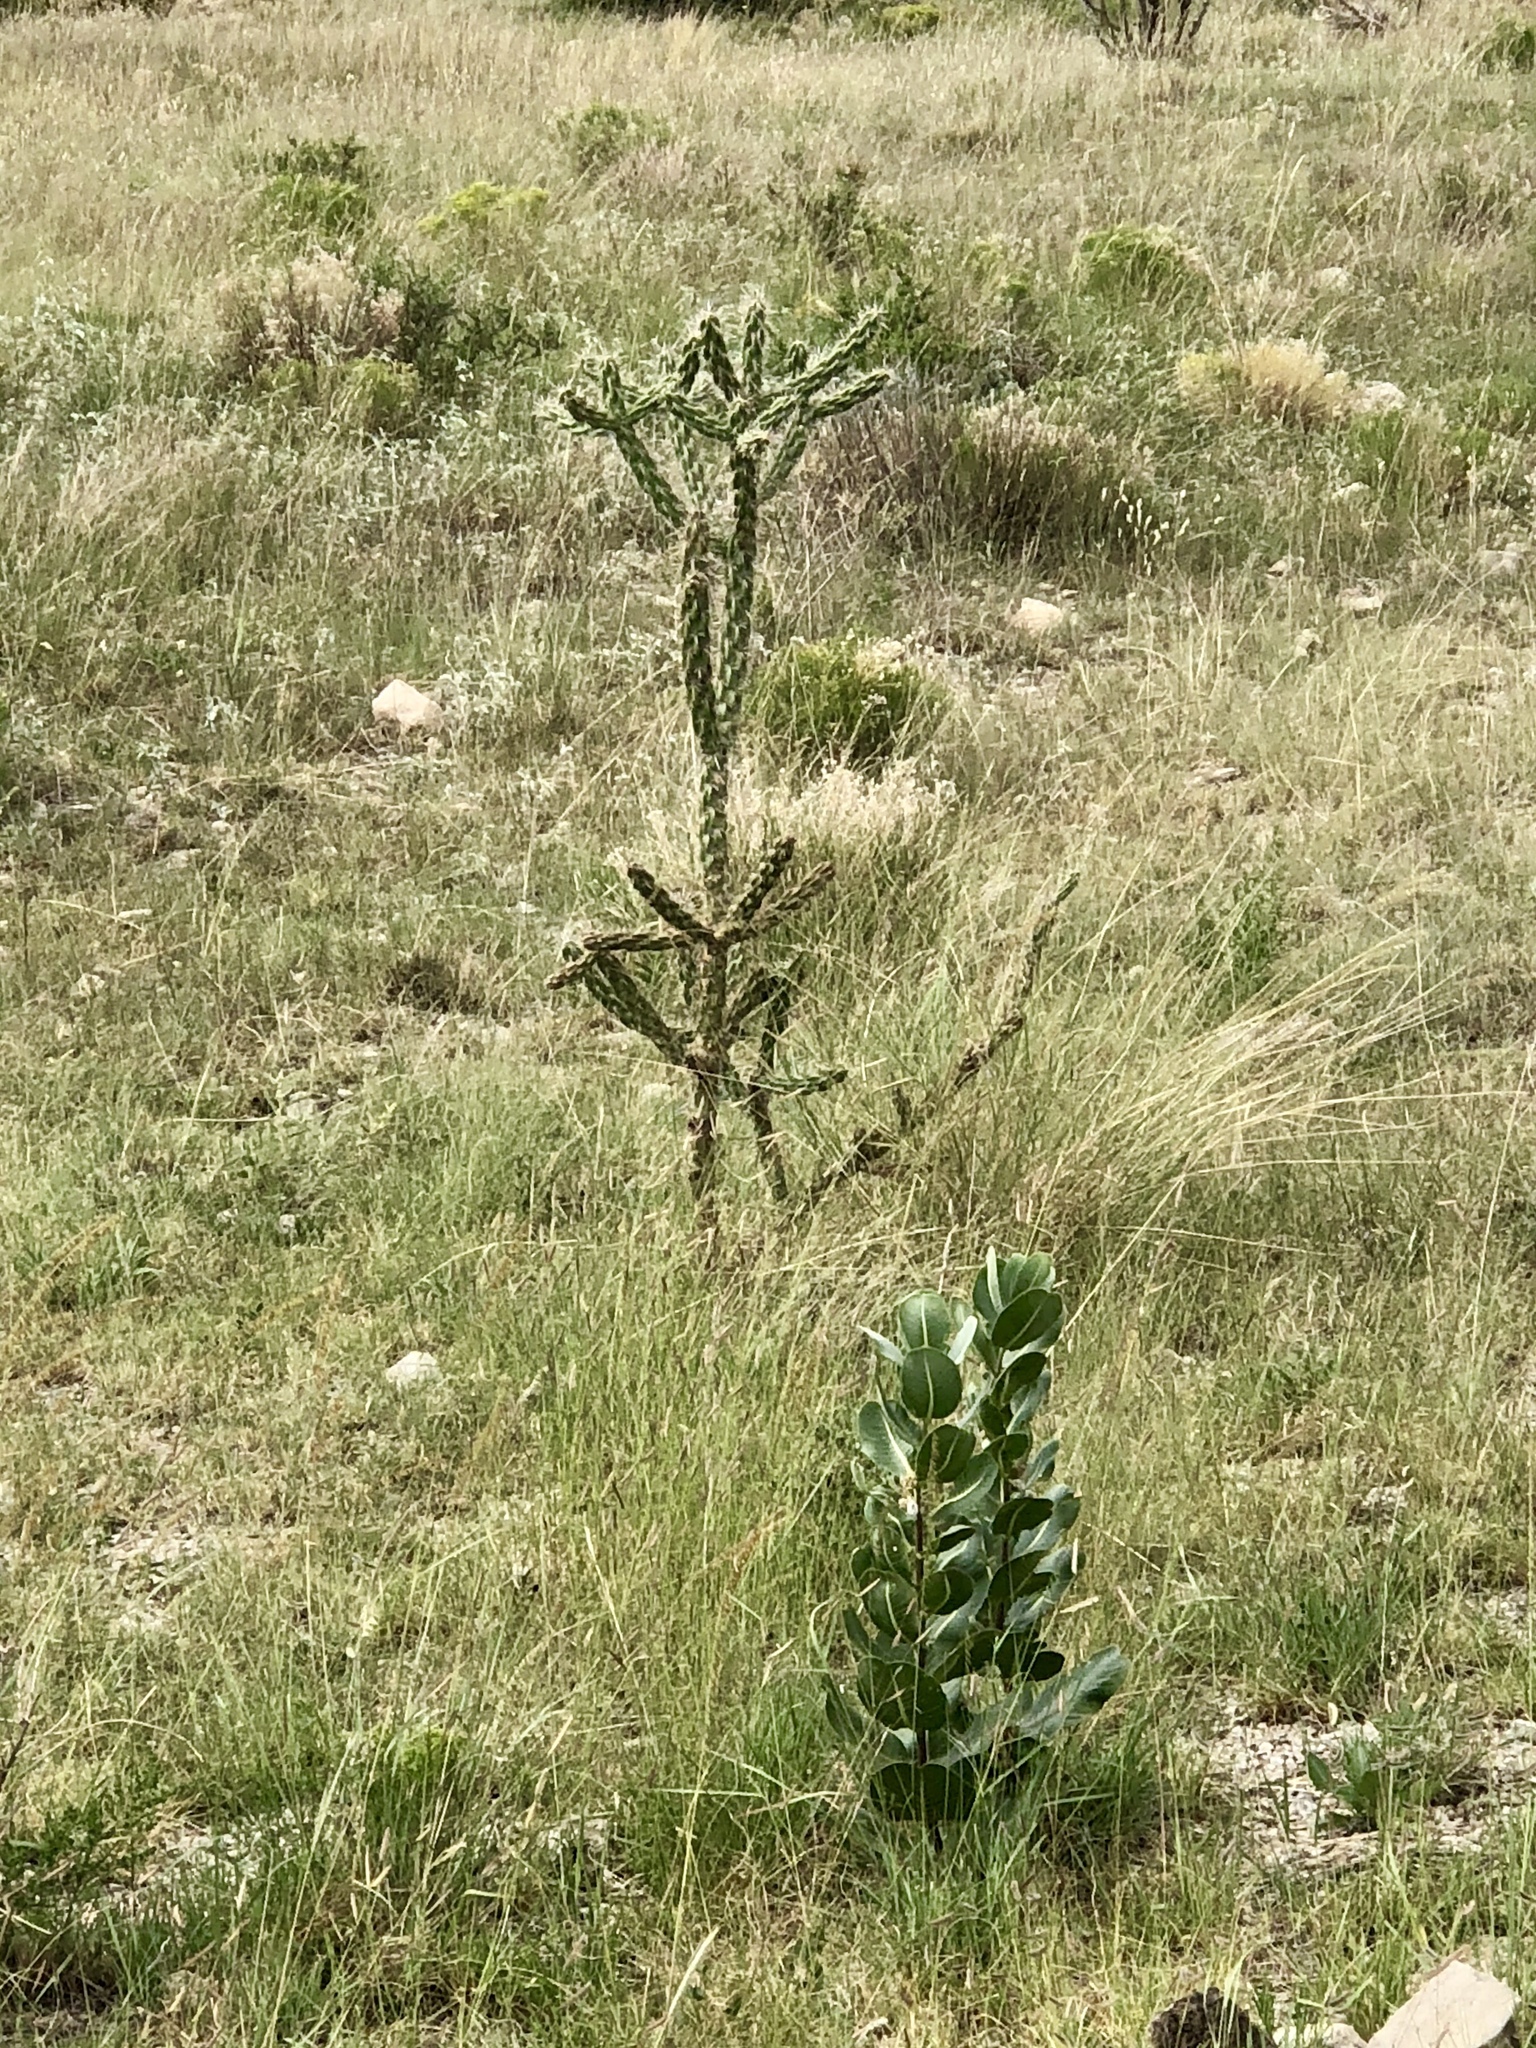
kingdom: Plantae
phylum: Tracheophyta
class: Magnoliopsida
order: Caryophyllales
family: Cactaceae
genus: Cylindropuntia
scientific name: Cylindropuntia imbricata
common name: Candelabrum cactus
